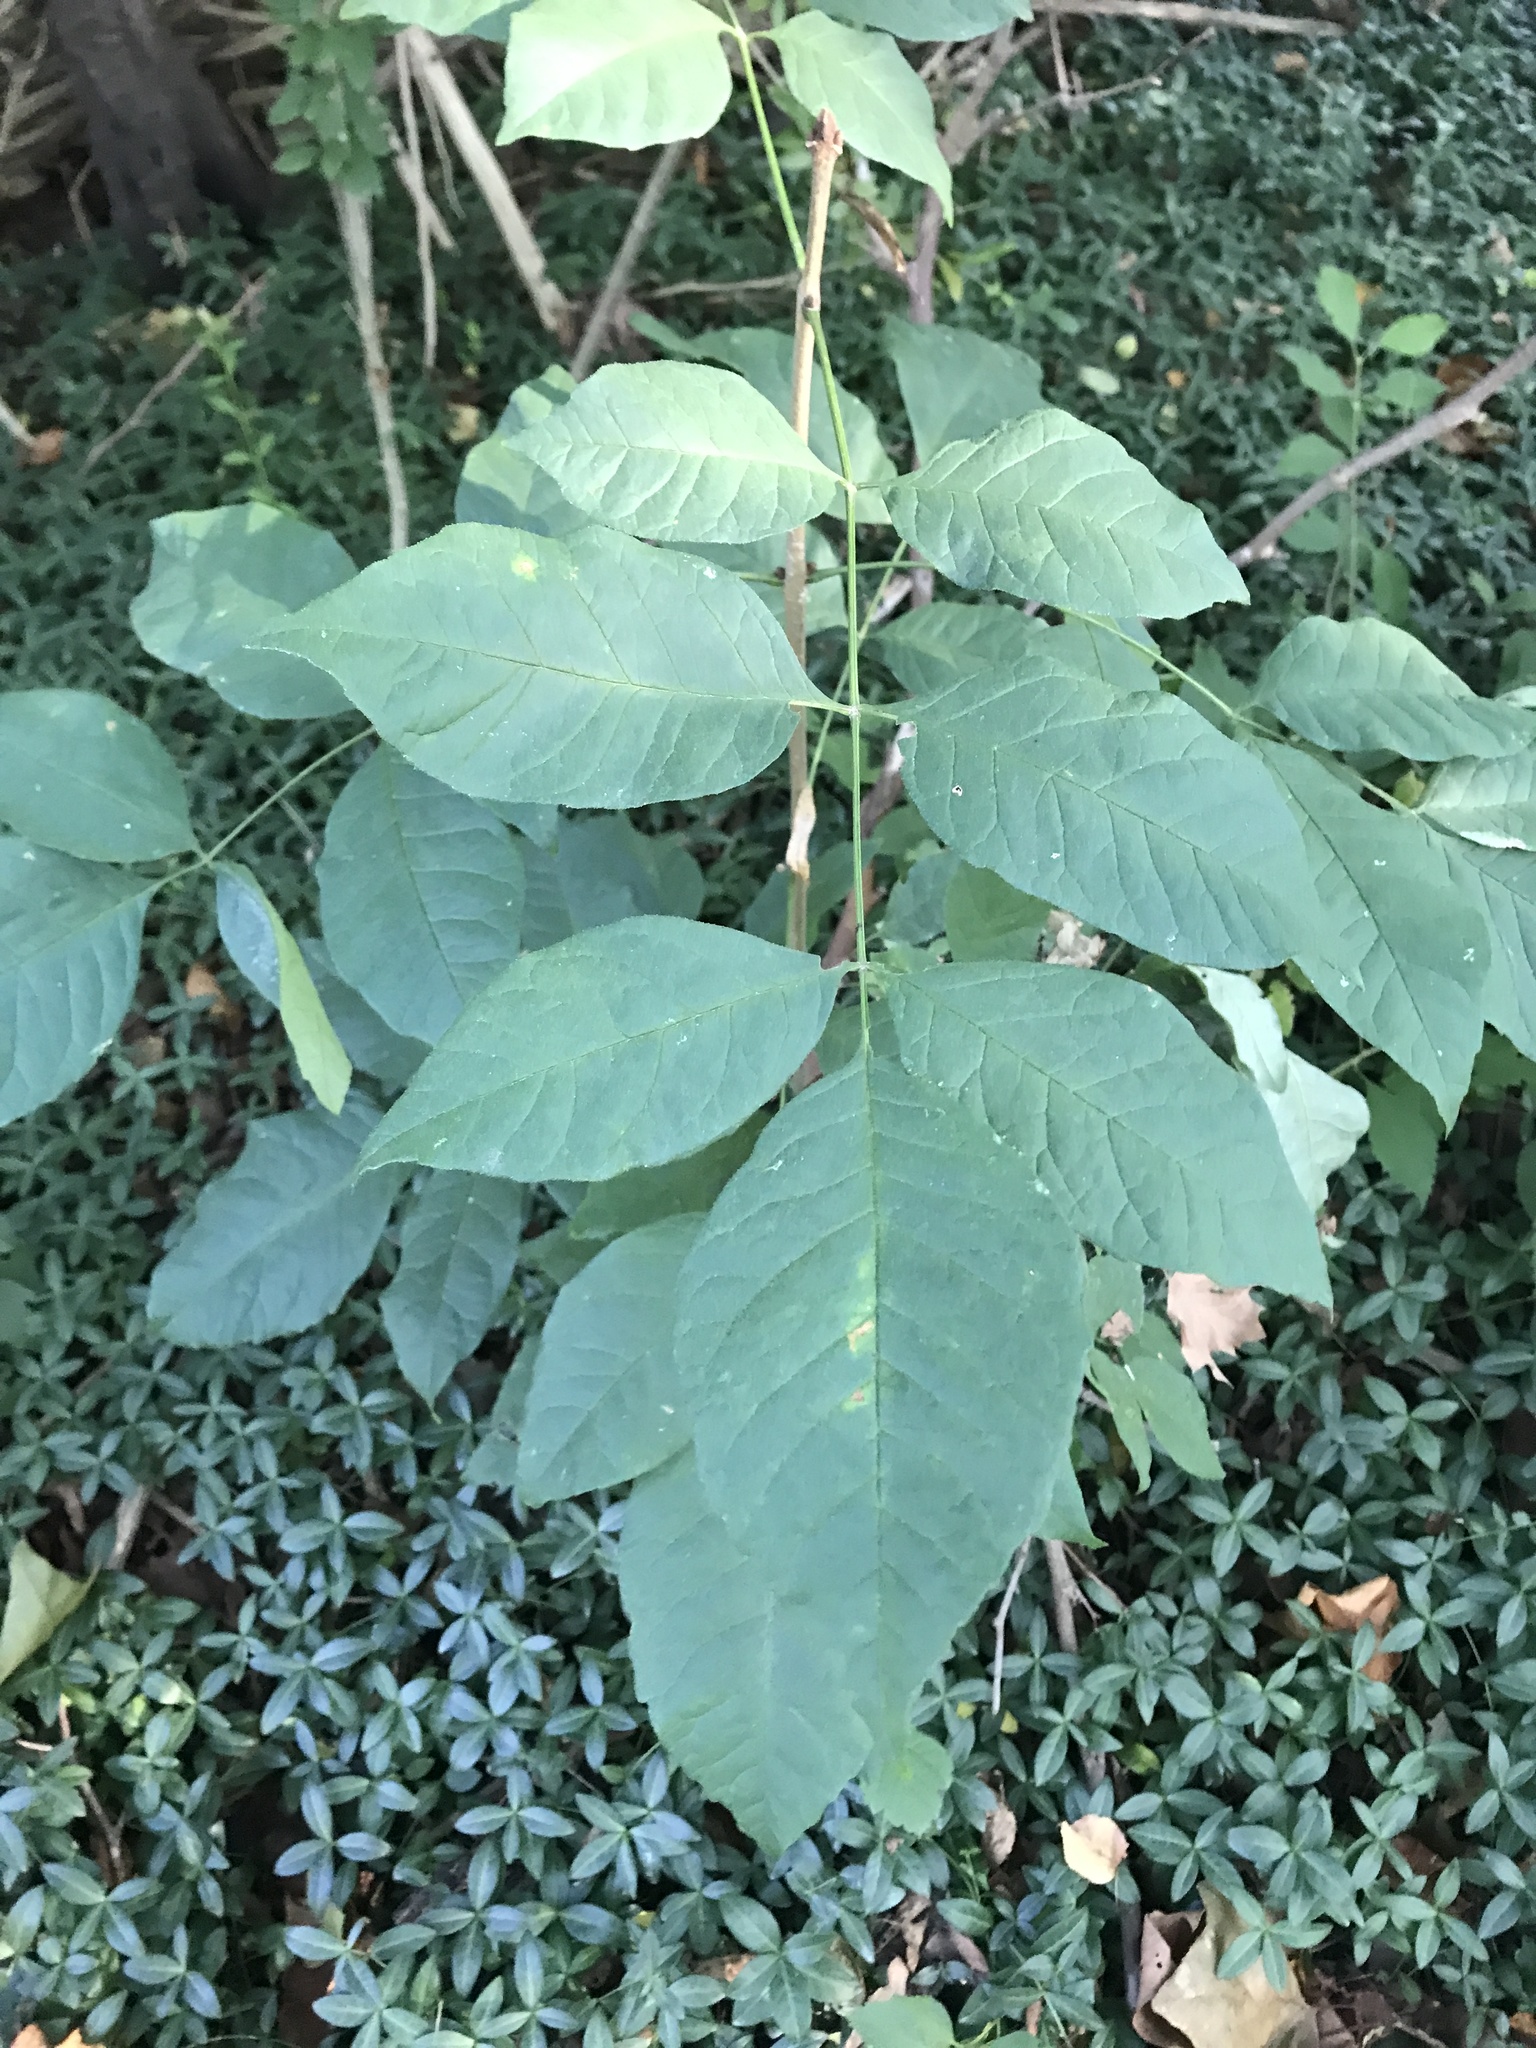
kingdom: Plantae
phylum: Tracheophyta
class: Magnoliopsida
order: Lamiales
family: Oleaceae
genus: Fraxinus
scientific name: Fraxinus americana
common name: White ash
